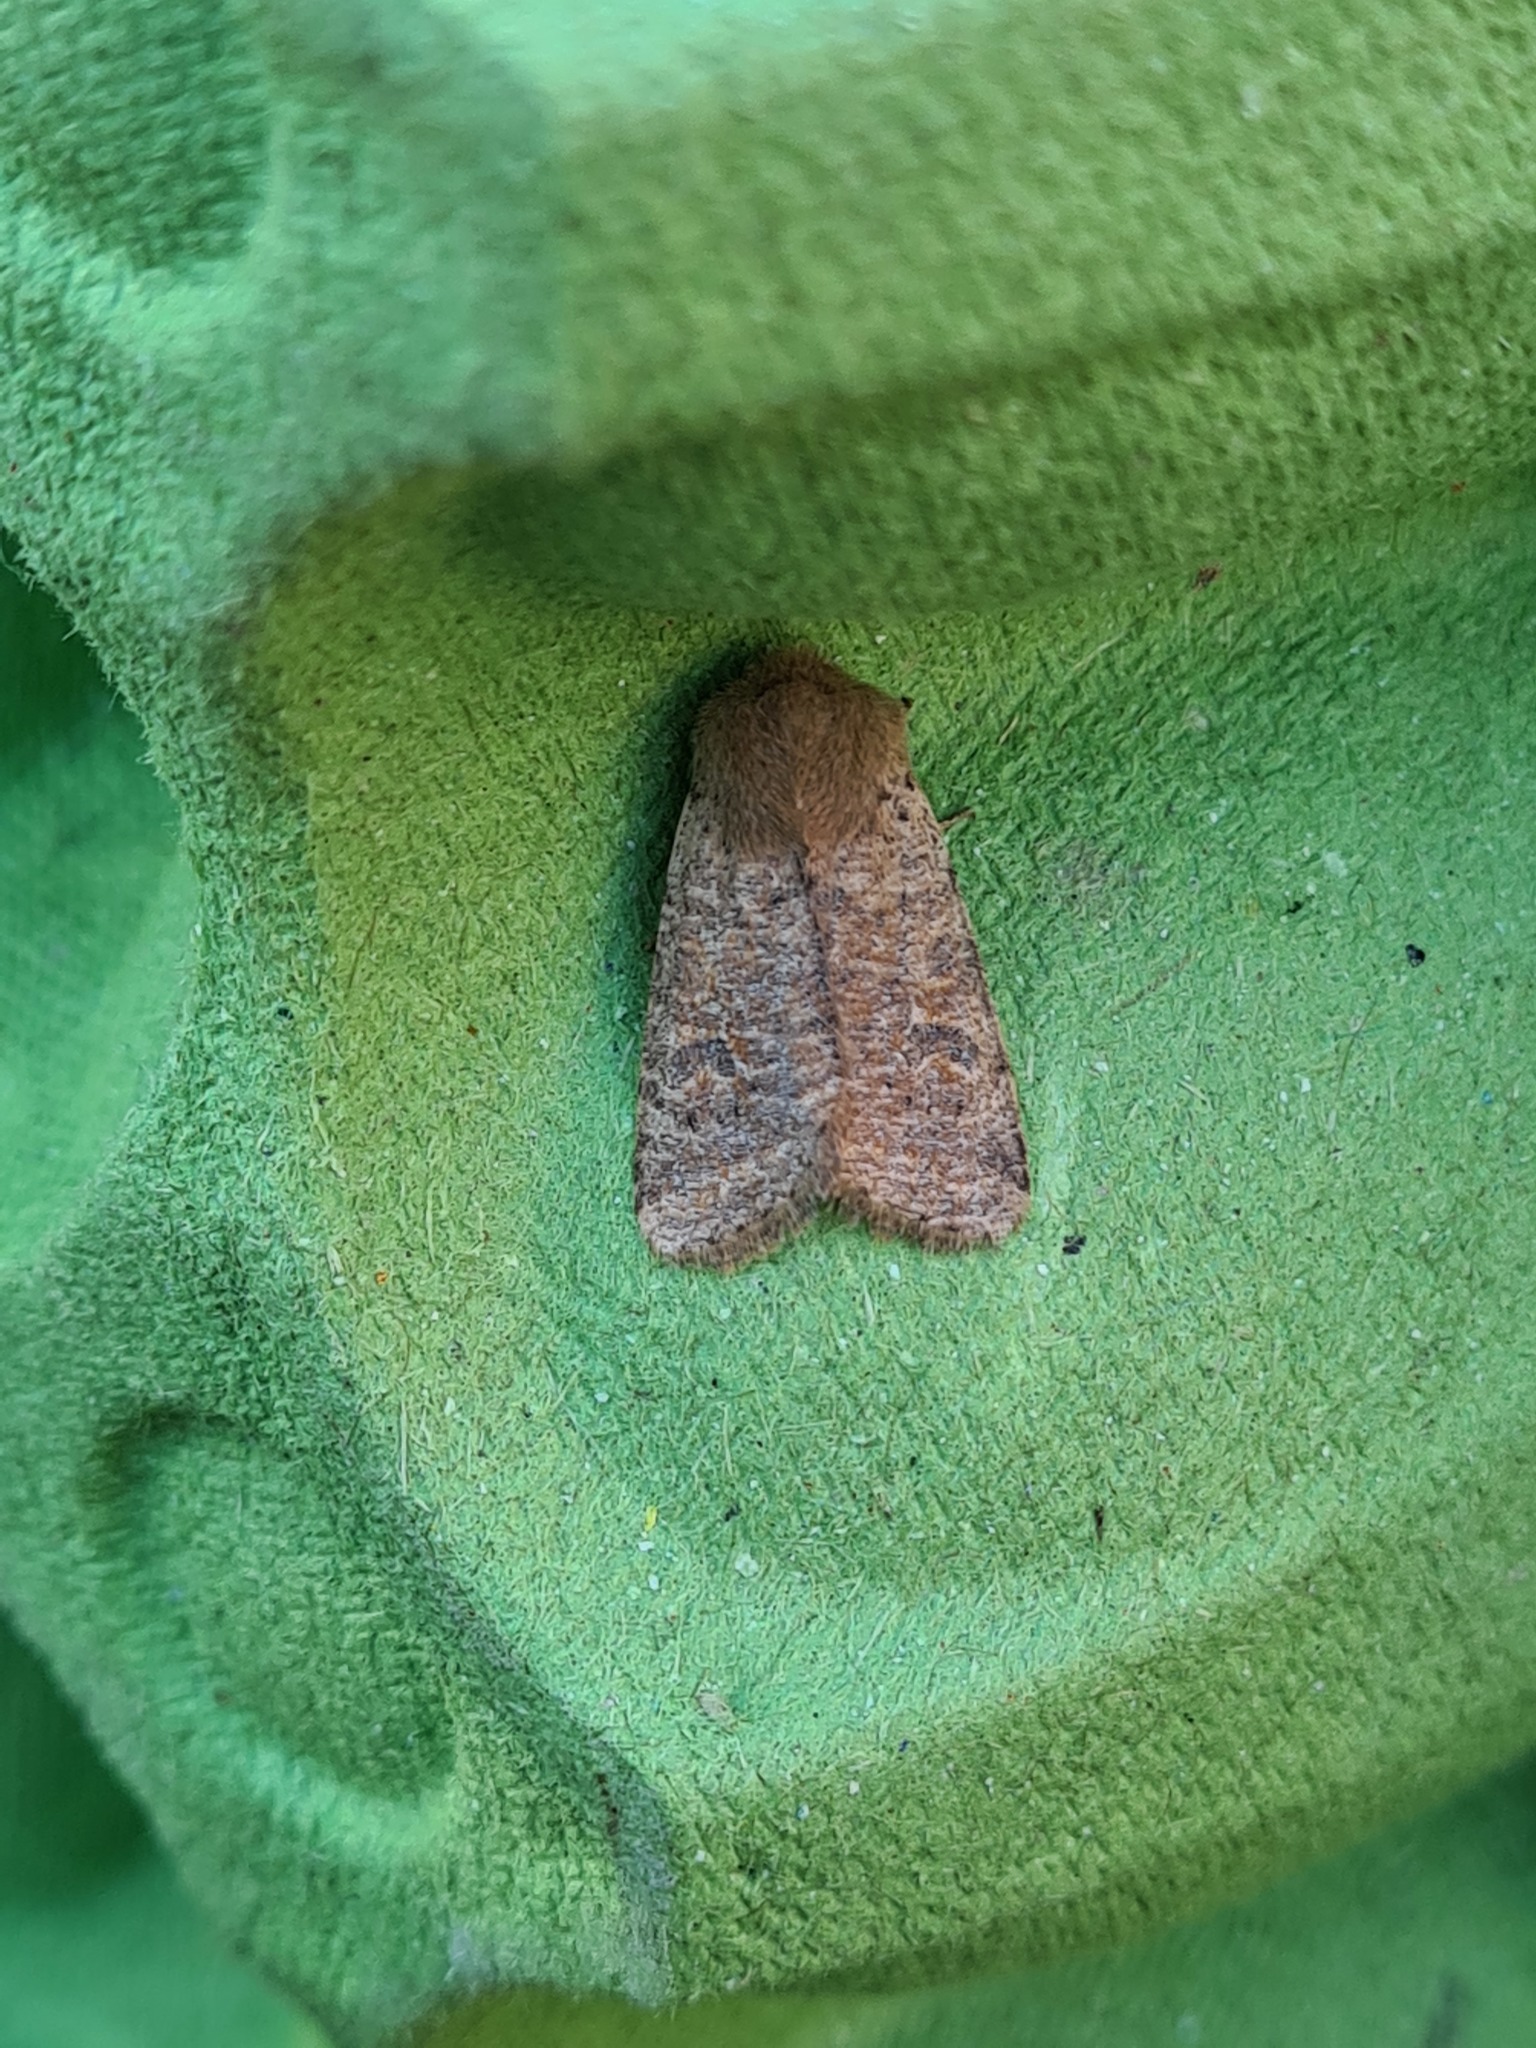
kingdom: Animalia
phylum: Arthropoda
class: Insecta
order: Lepidoptera
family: Noctuidae
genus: Orthosia
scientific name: Orthosia cruda
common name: Small quaker
